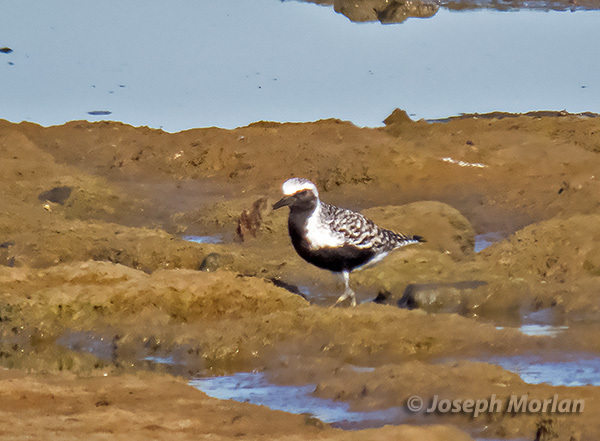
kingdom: Animalia
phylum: Chordata
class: Aves
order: Charadriiformes
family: Charadriidae
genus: Pluvialis
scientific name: Pluvialis squatarola
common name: Grey plover
